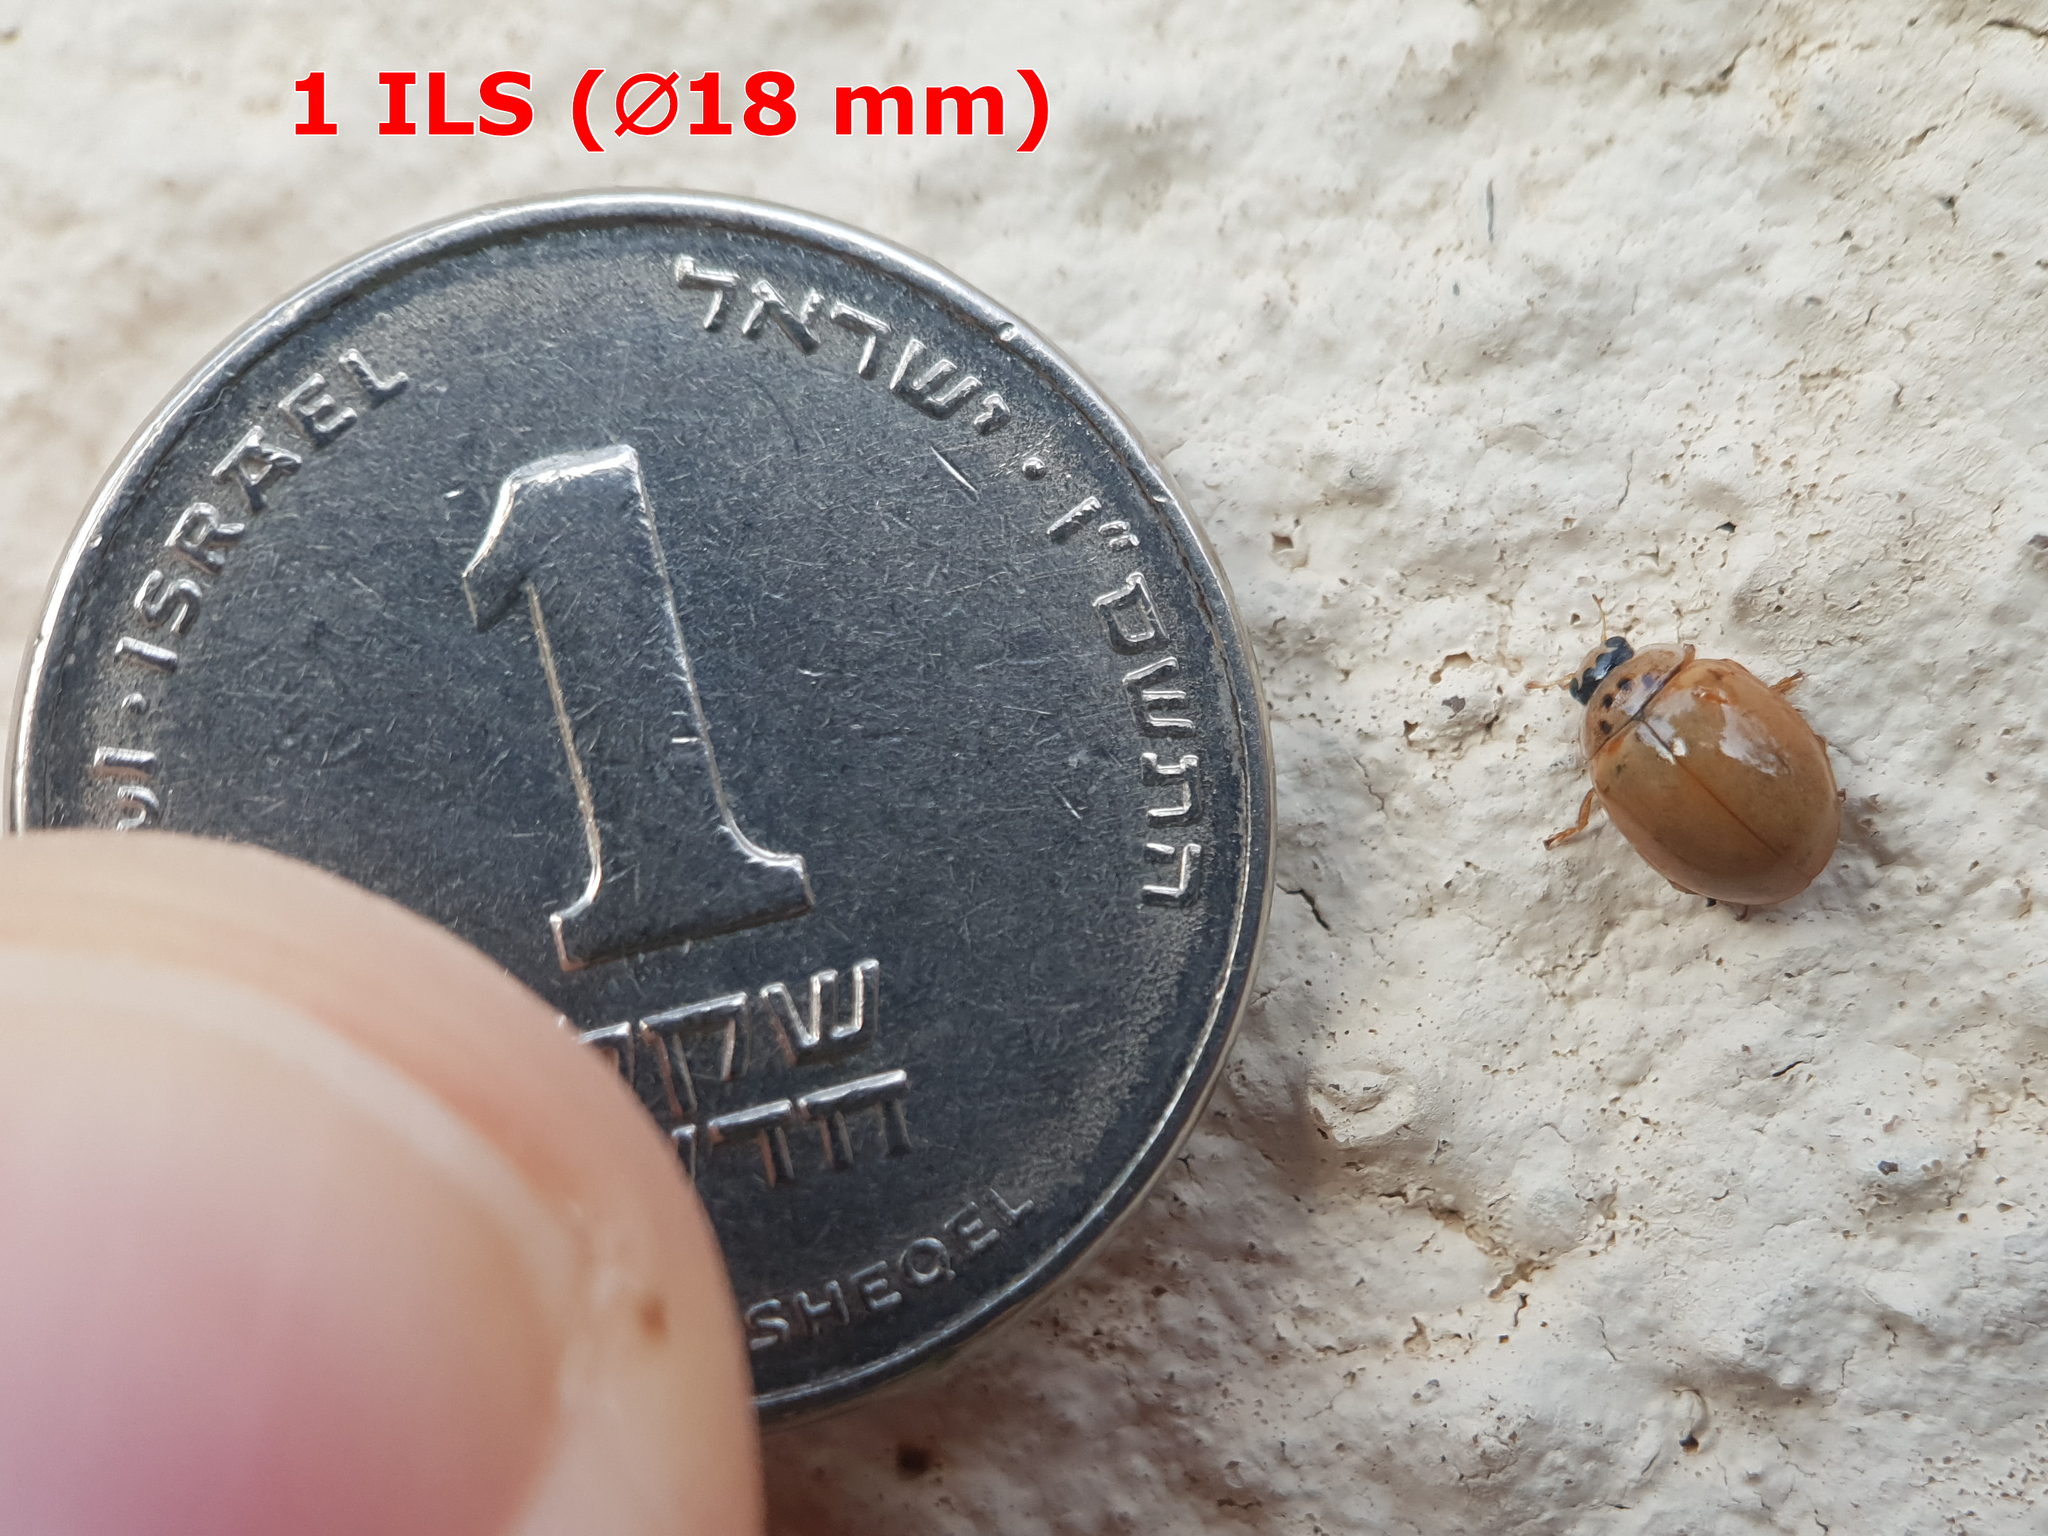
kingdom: Animalia
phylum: Arthropoda
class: Insecta
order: Coleoptera
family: Coccinellidae
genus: Harmonia
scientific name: Harmonia axyridis
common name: Harlequin ladybird
